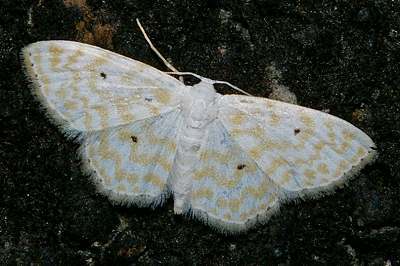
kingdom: Animalia
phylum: Arthropoda
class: Insecta
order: Lepidoptera
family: Geometridae
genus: Scopula
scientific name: Scopula confusa
